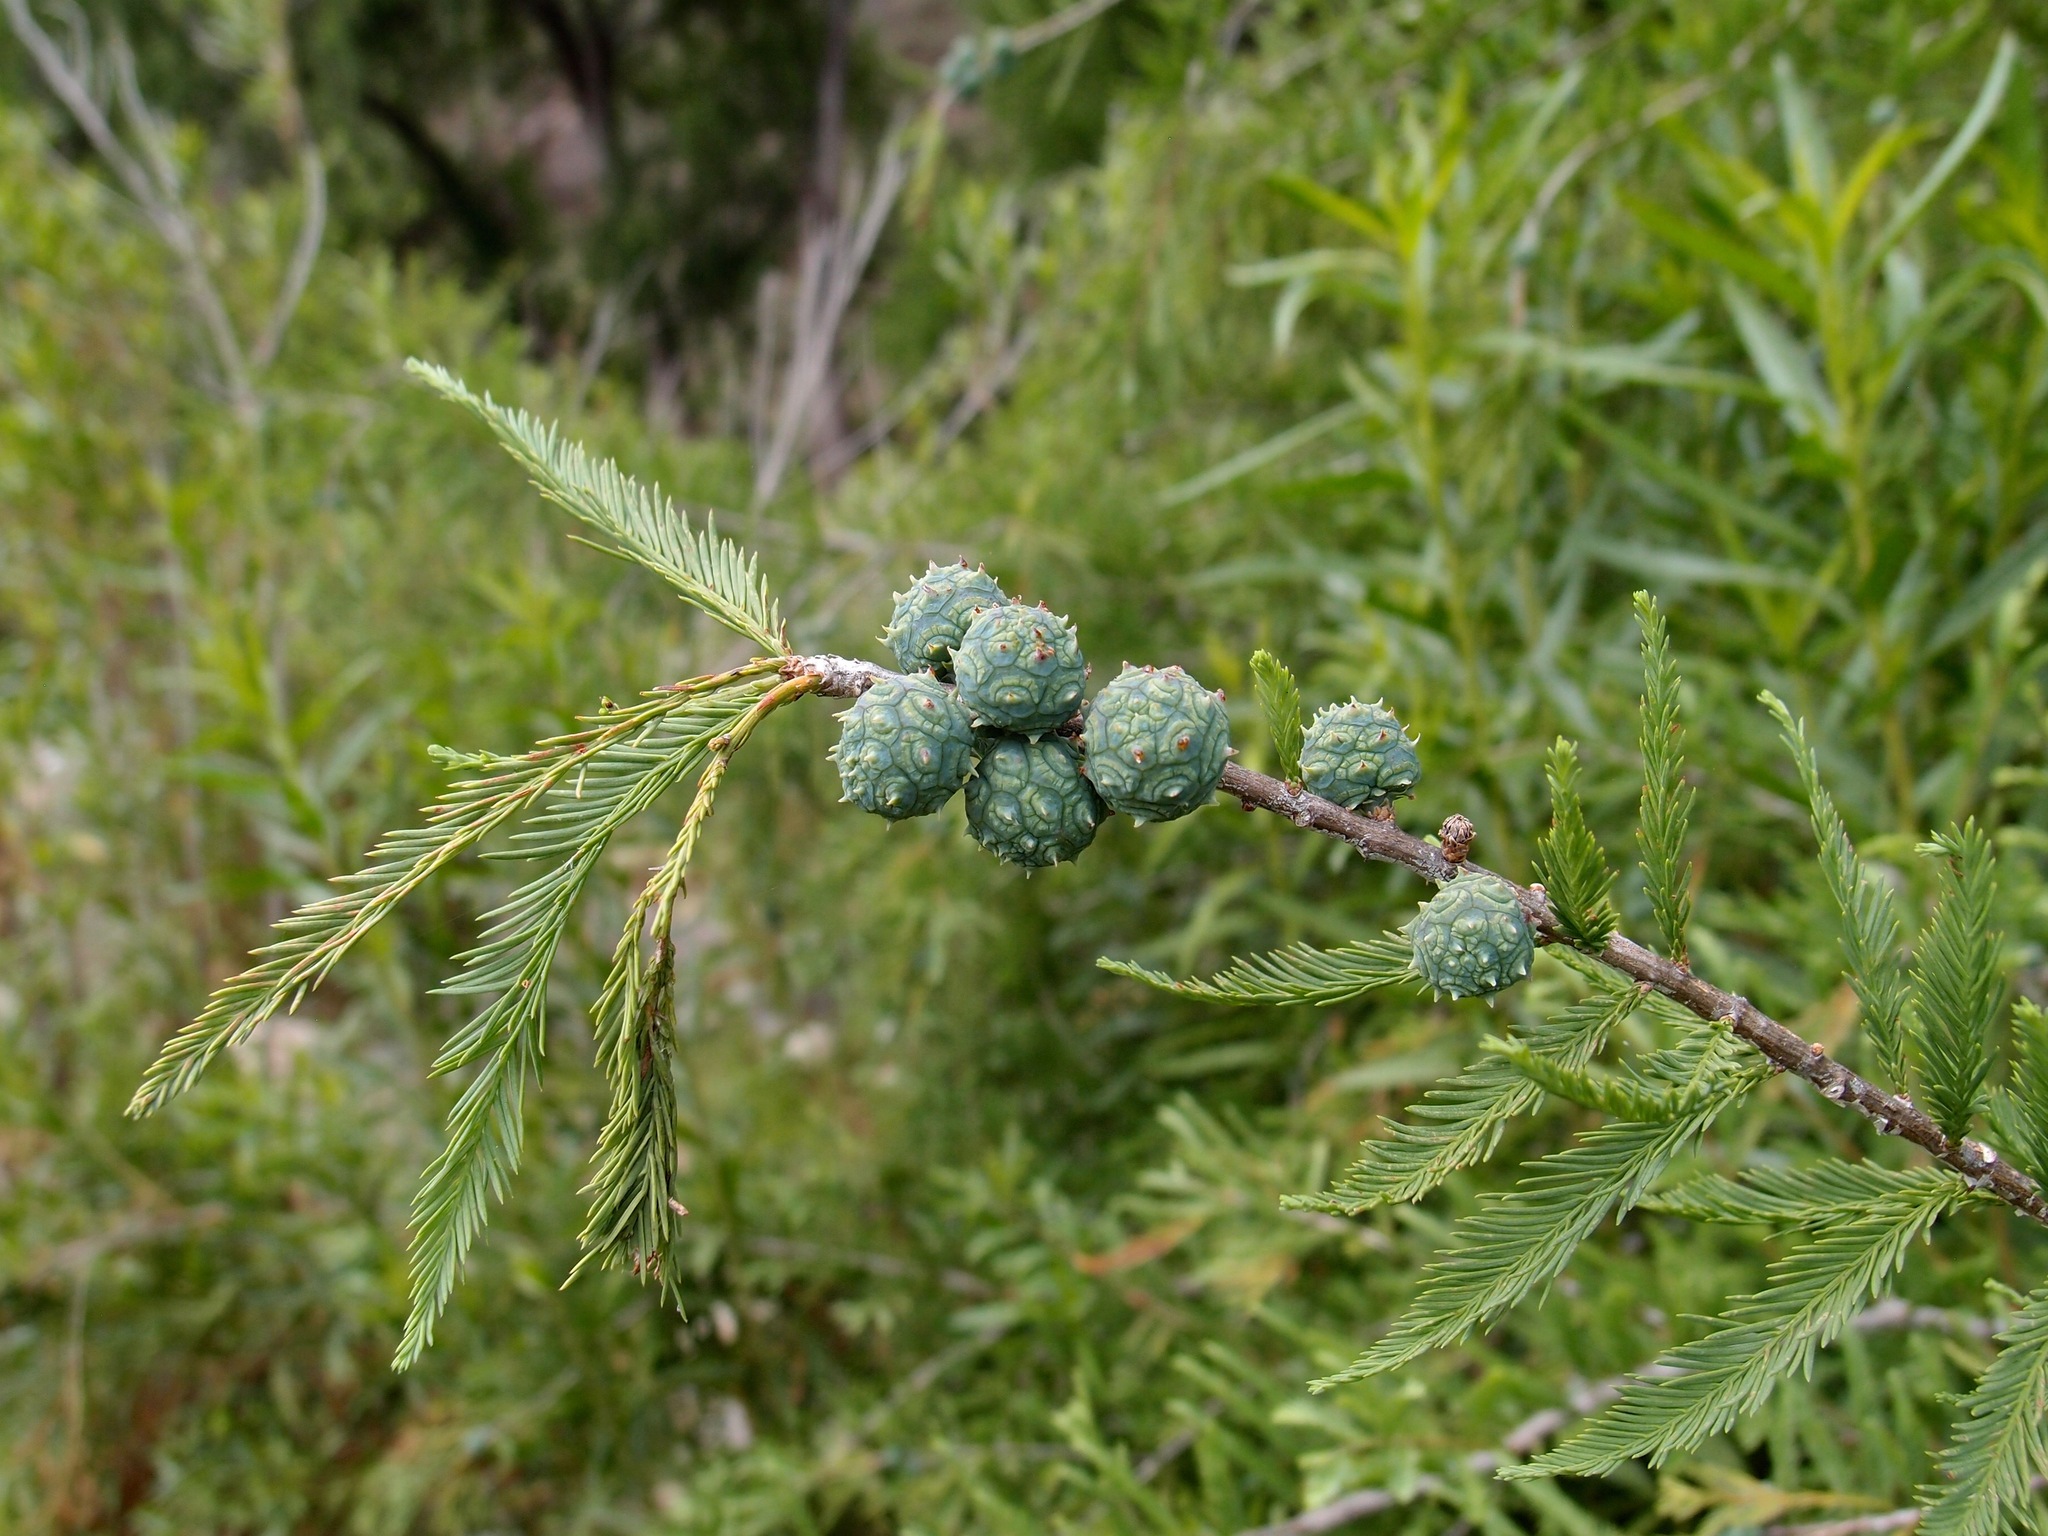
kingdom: Plantae
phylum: Tracheophyta
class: Pinopsida
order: Pinales
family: Cupressaceae
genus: Taxodium
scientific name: Taxodium mucronatum
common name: Montezume bald cypress
